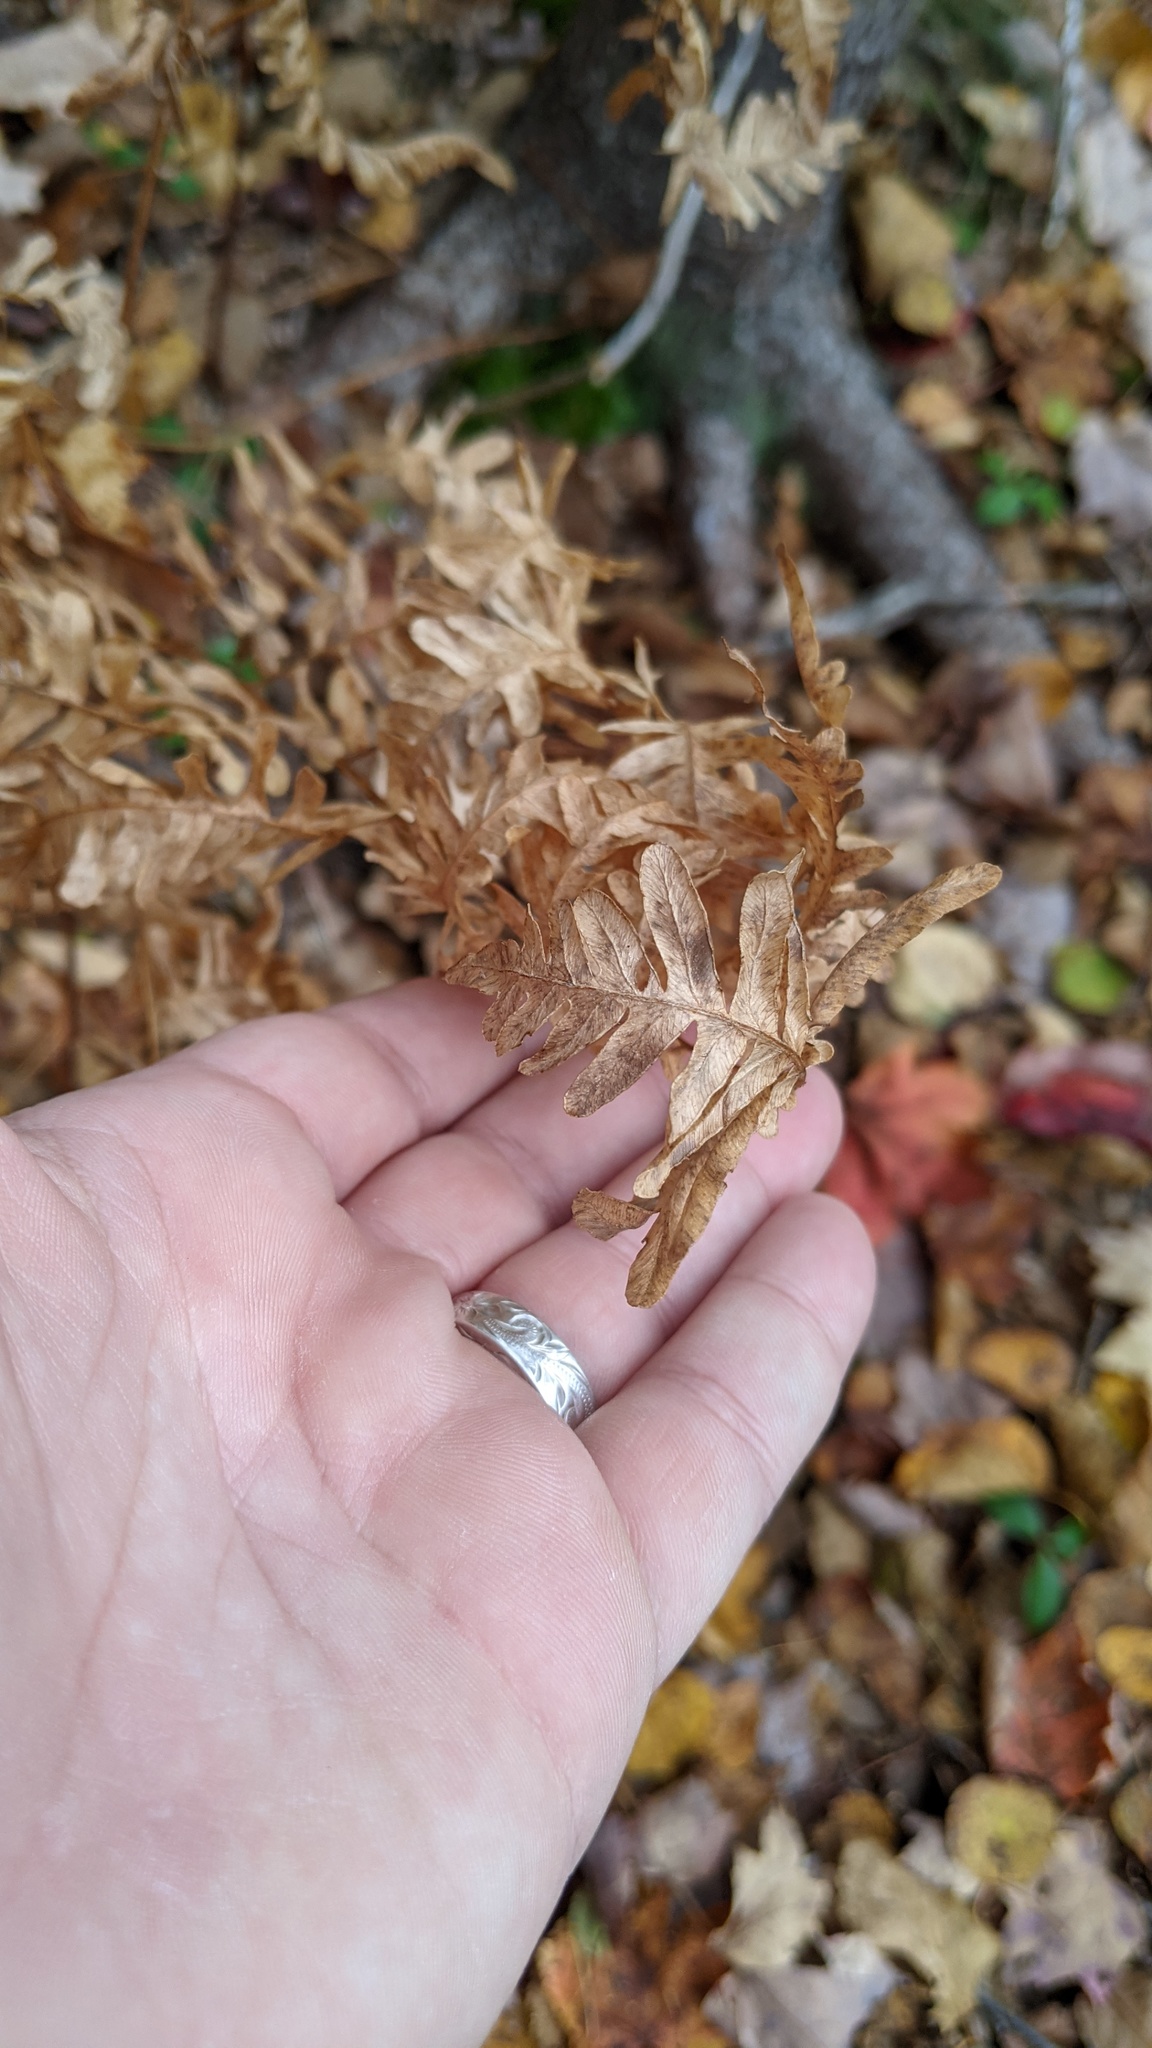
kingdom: Plantae
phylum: Tracheophyta
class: Polypodiopsida
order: Polypodiales
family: Dennstaedtiaceae
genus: Pteridium
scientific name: Pteridium aquilinum
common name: Bracken
